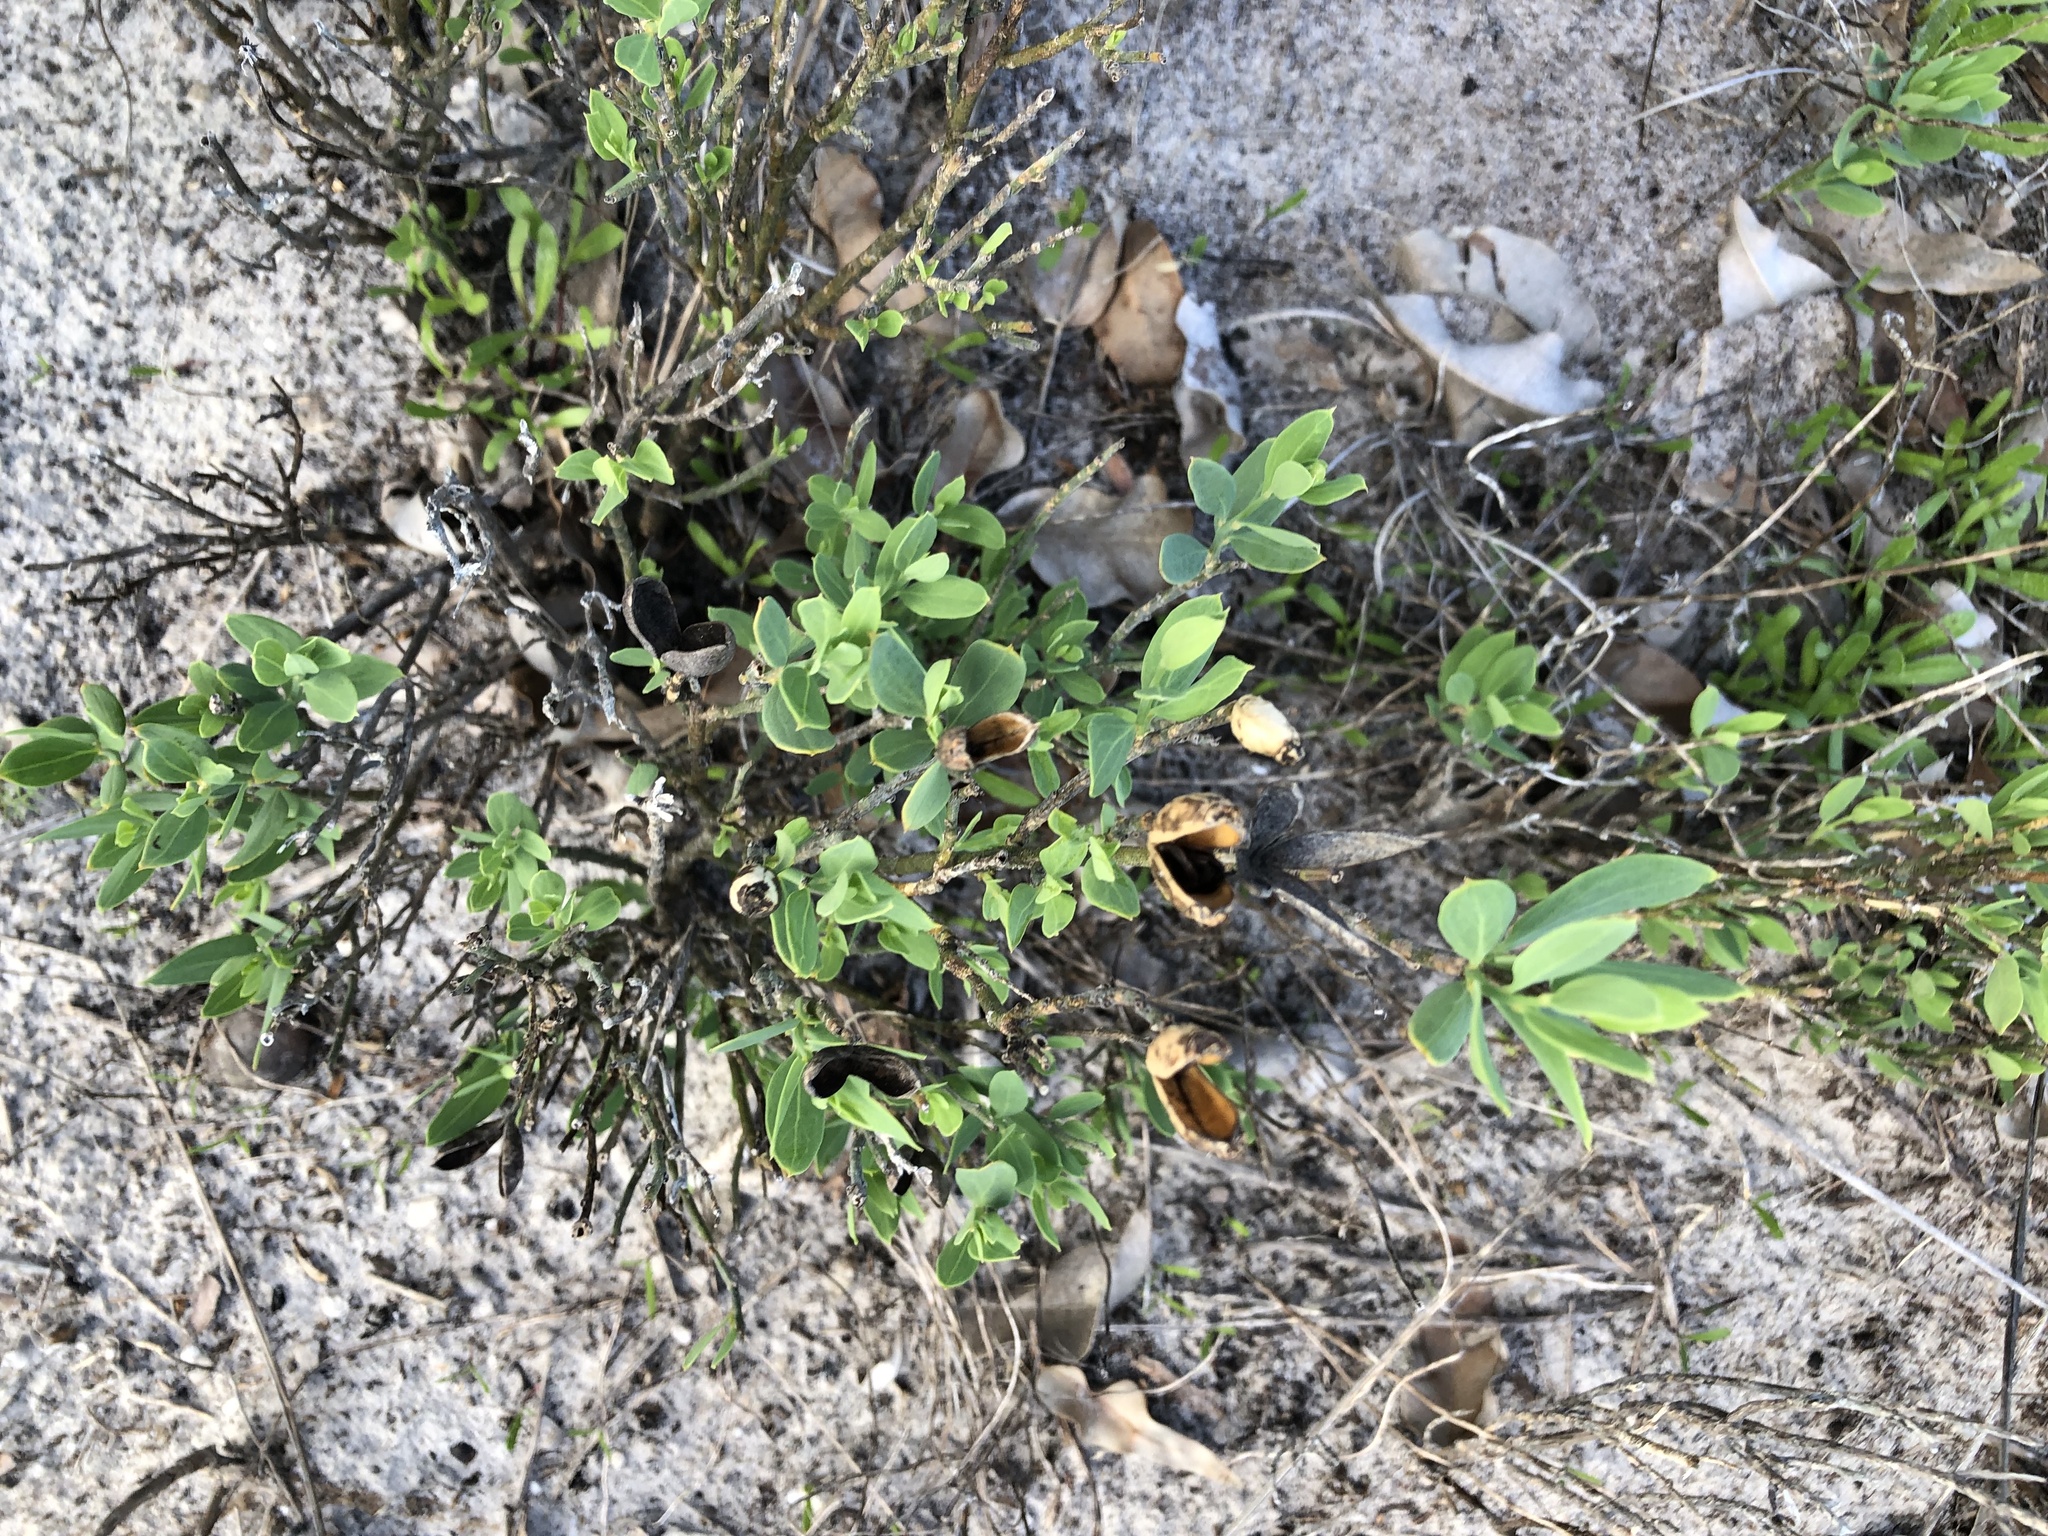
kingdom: Plantae
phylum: Tracheophyta
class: Magnoliopsida
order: Solanales
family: Montiniaceae
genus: Montinia
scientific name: Montinia caryophyllacea
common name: Wild clove-bush
